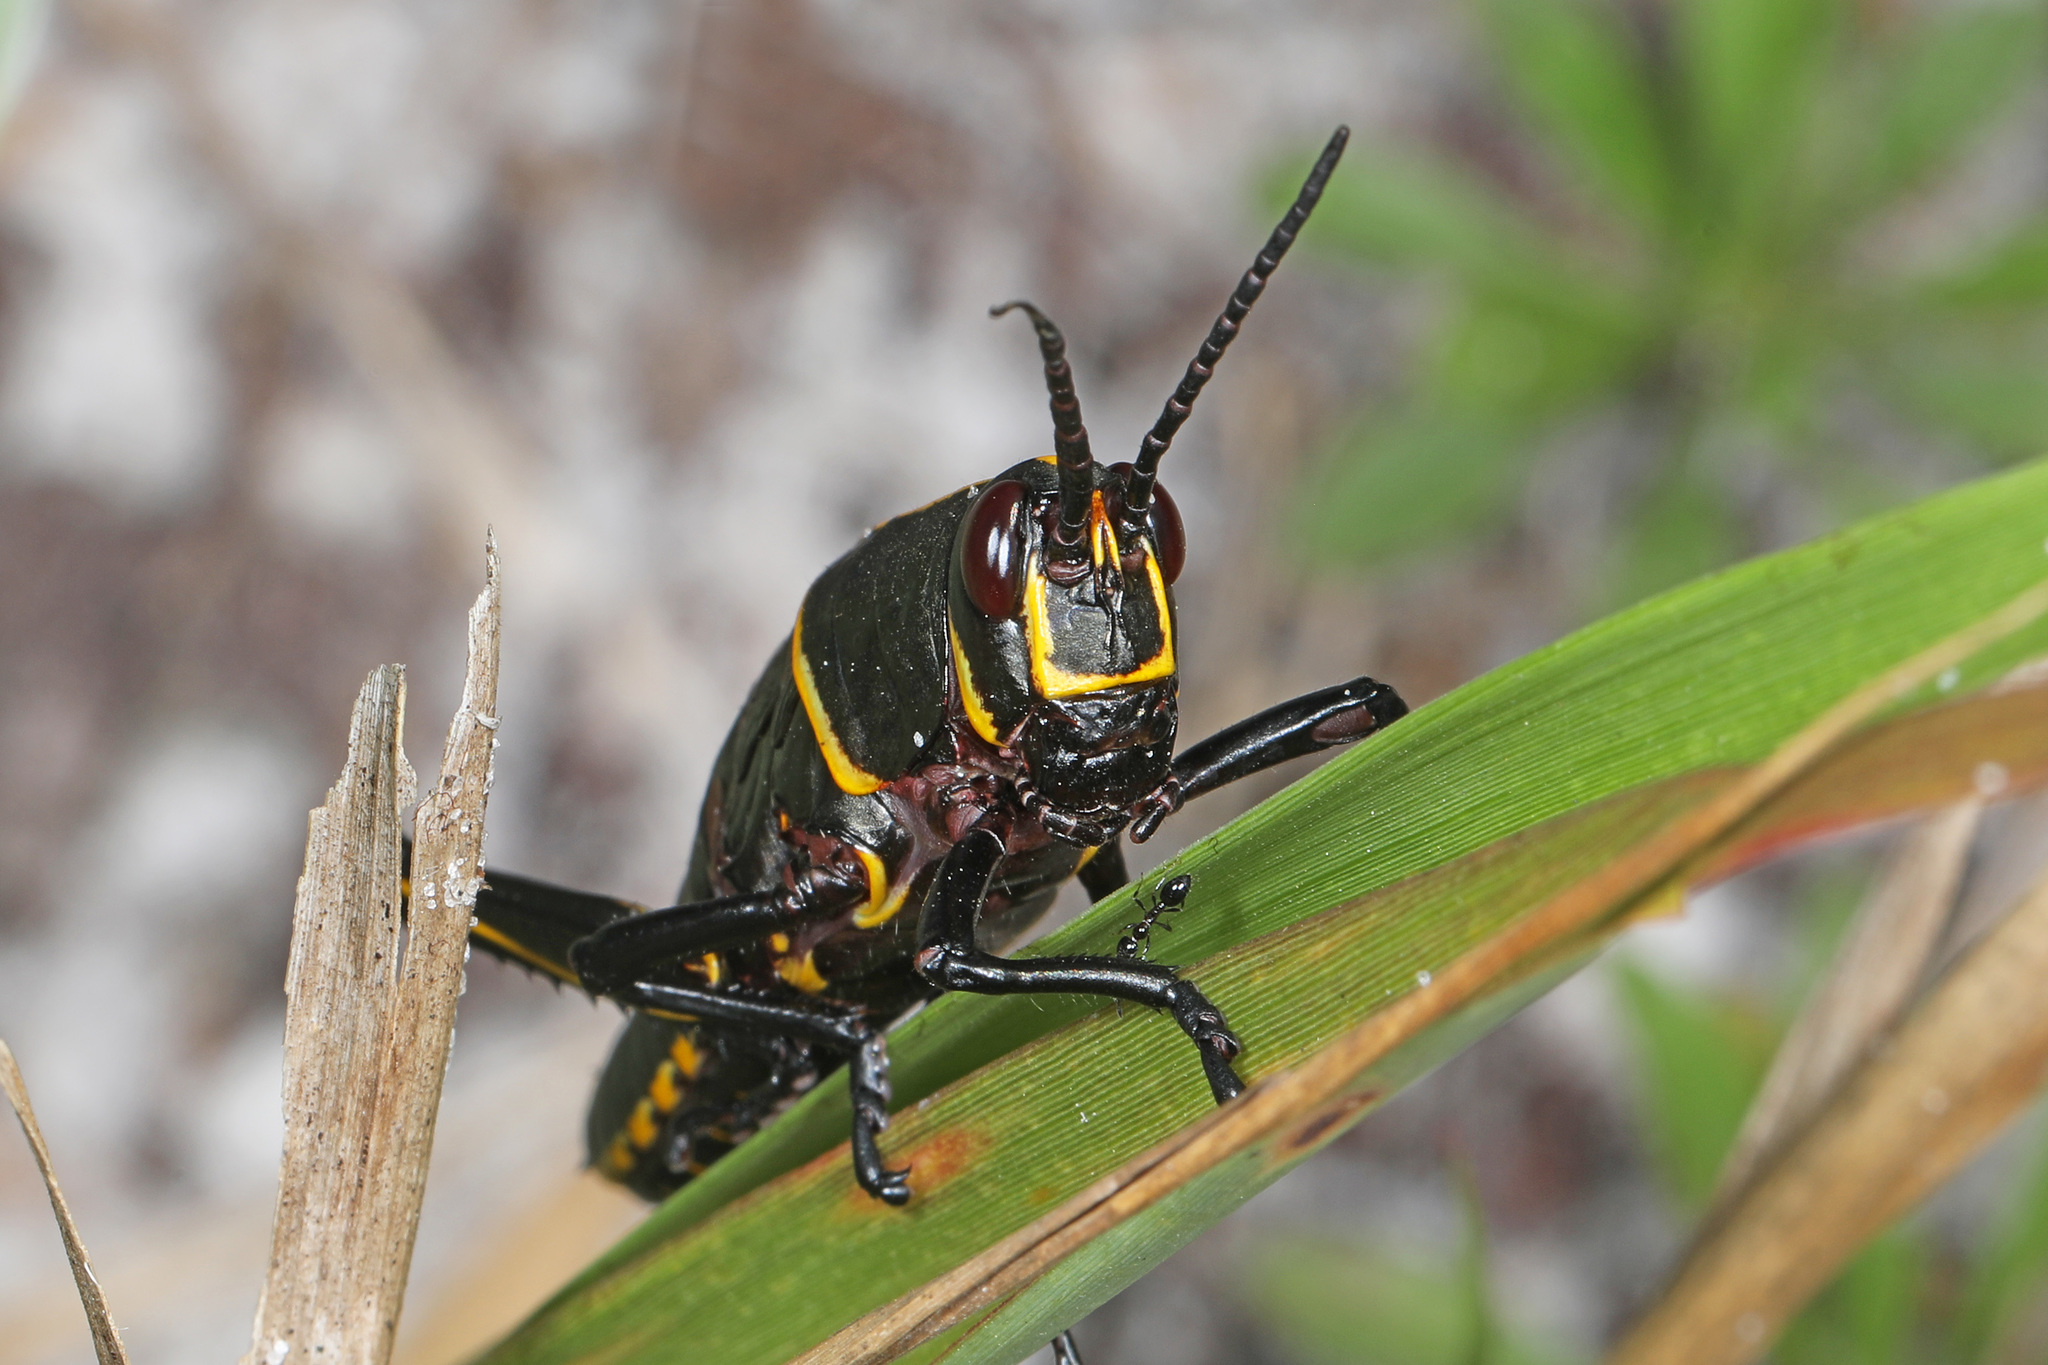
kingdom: Animalia
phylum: Arthropoda
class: Insecta
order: Orthoptera
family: Romaleidae
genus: Romalea
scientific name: Romalea microptera
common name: Eastern lubber grasshopper
